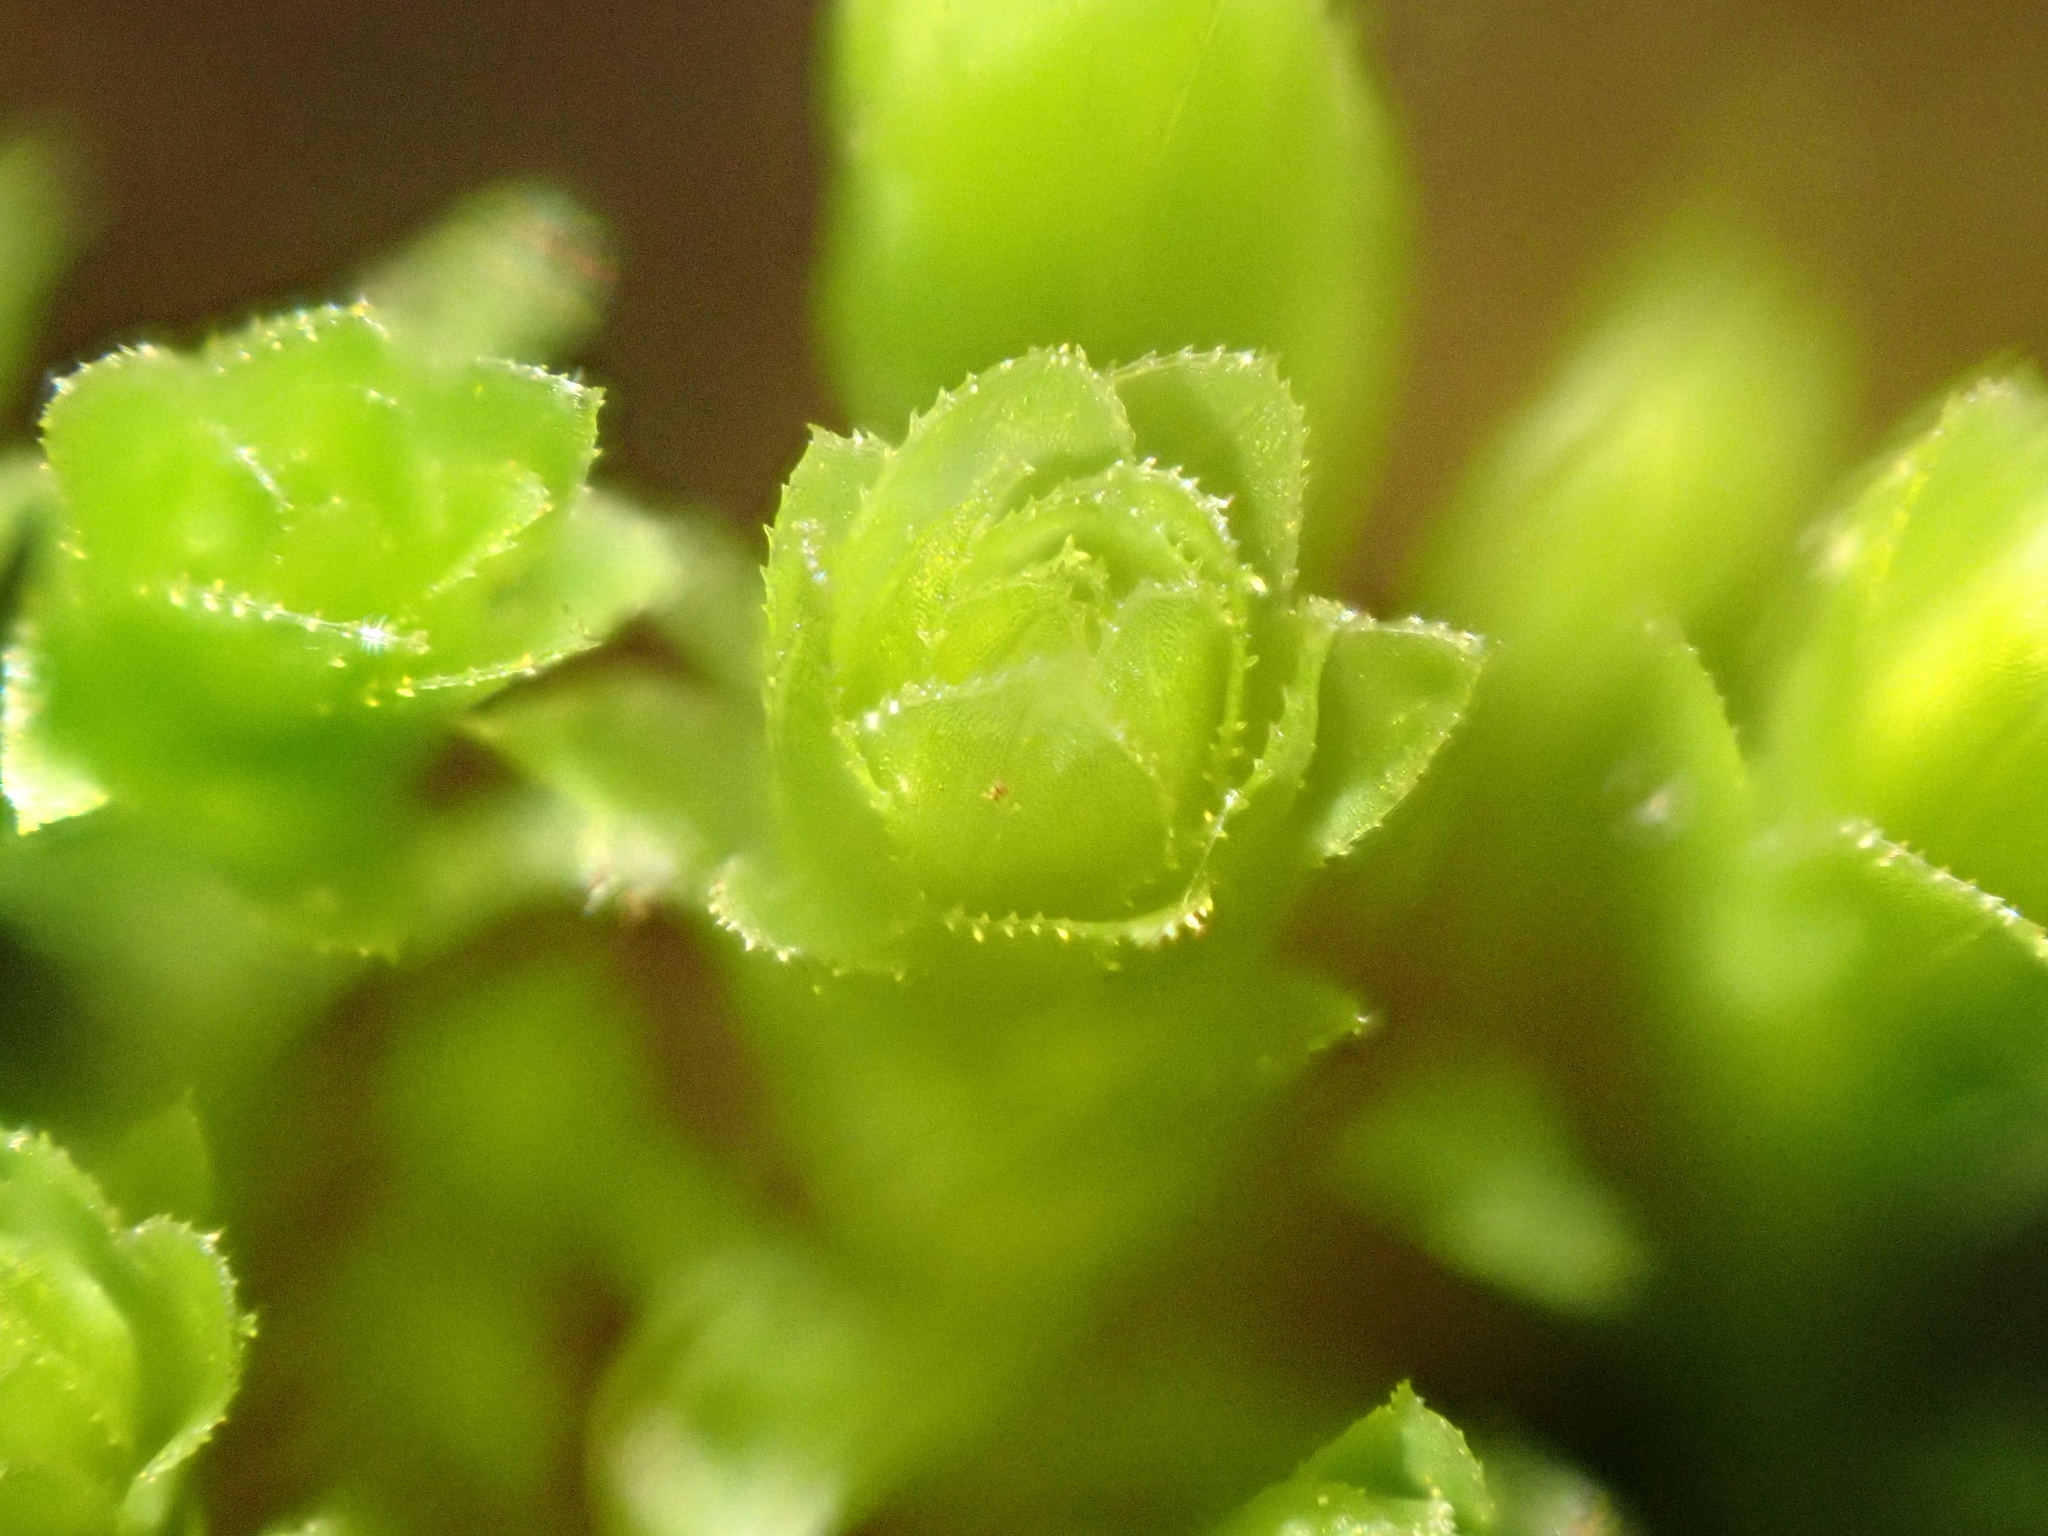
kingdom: Plantae
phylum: Bryophyta
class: Bryopsida
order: Bryales
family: Mniaceae
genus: Mnium
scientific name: Mnium hornum
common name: Swan's-neck leafy moss
